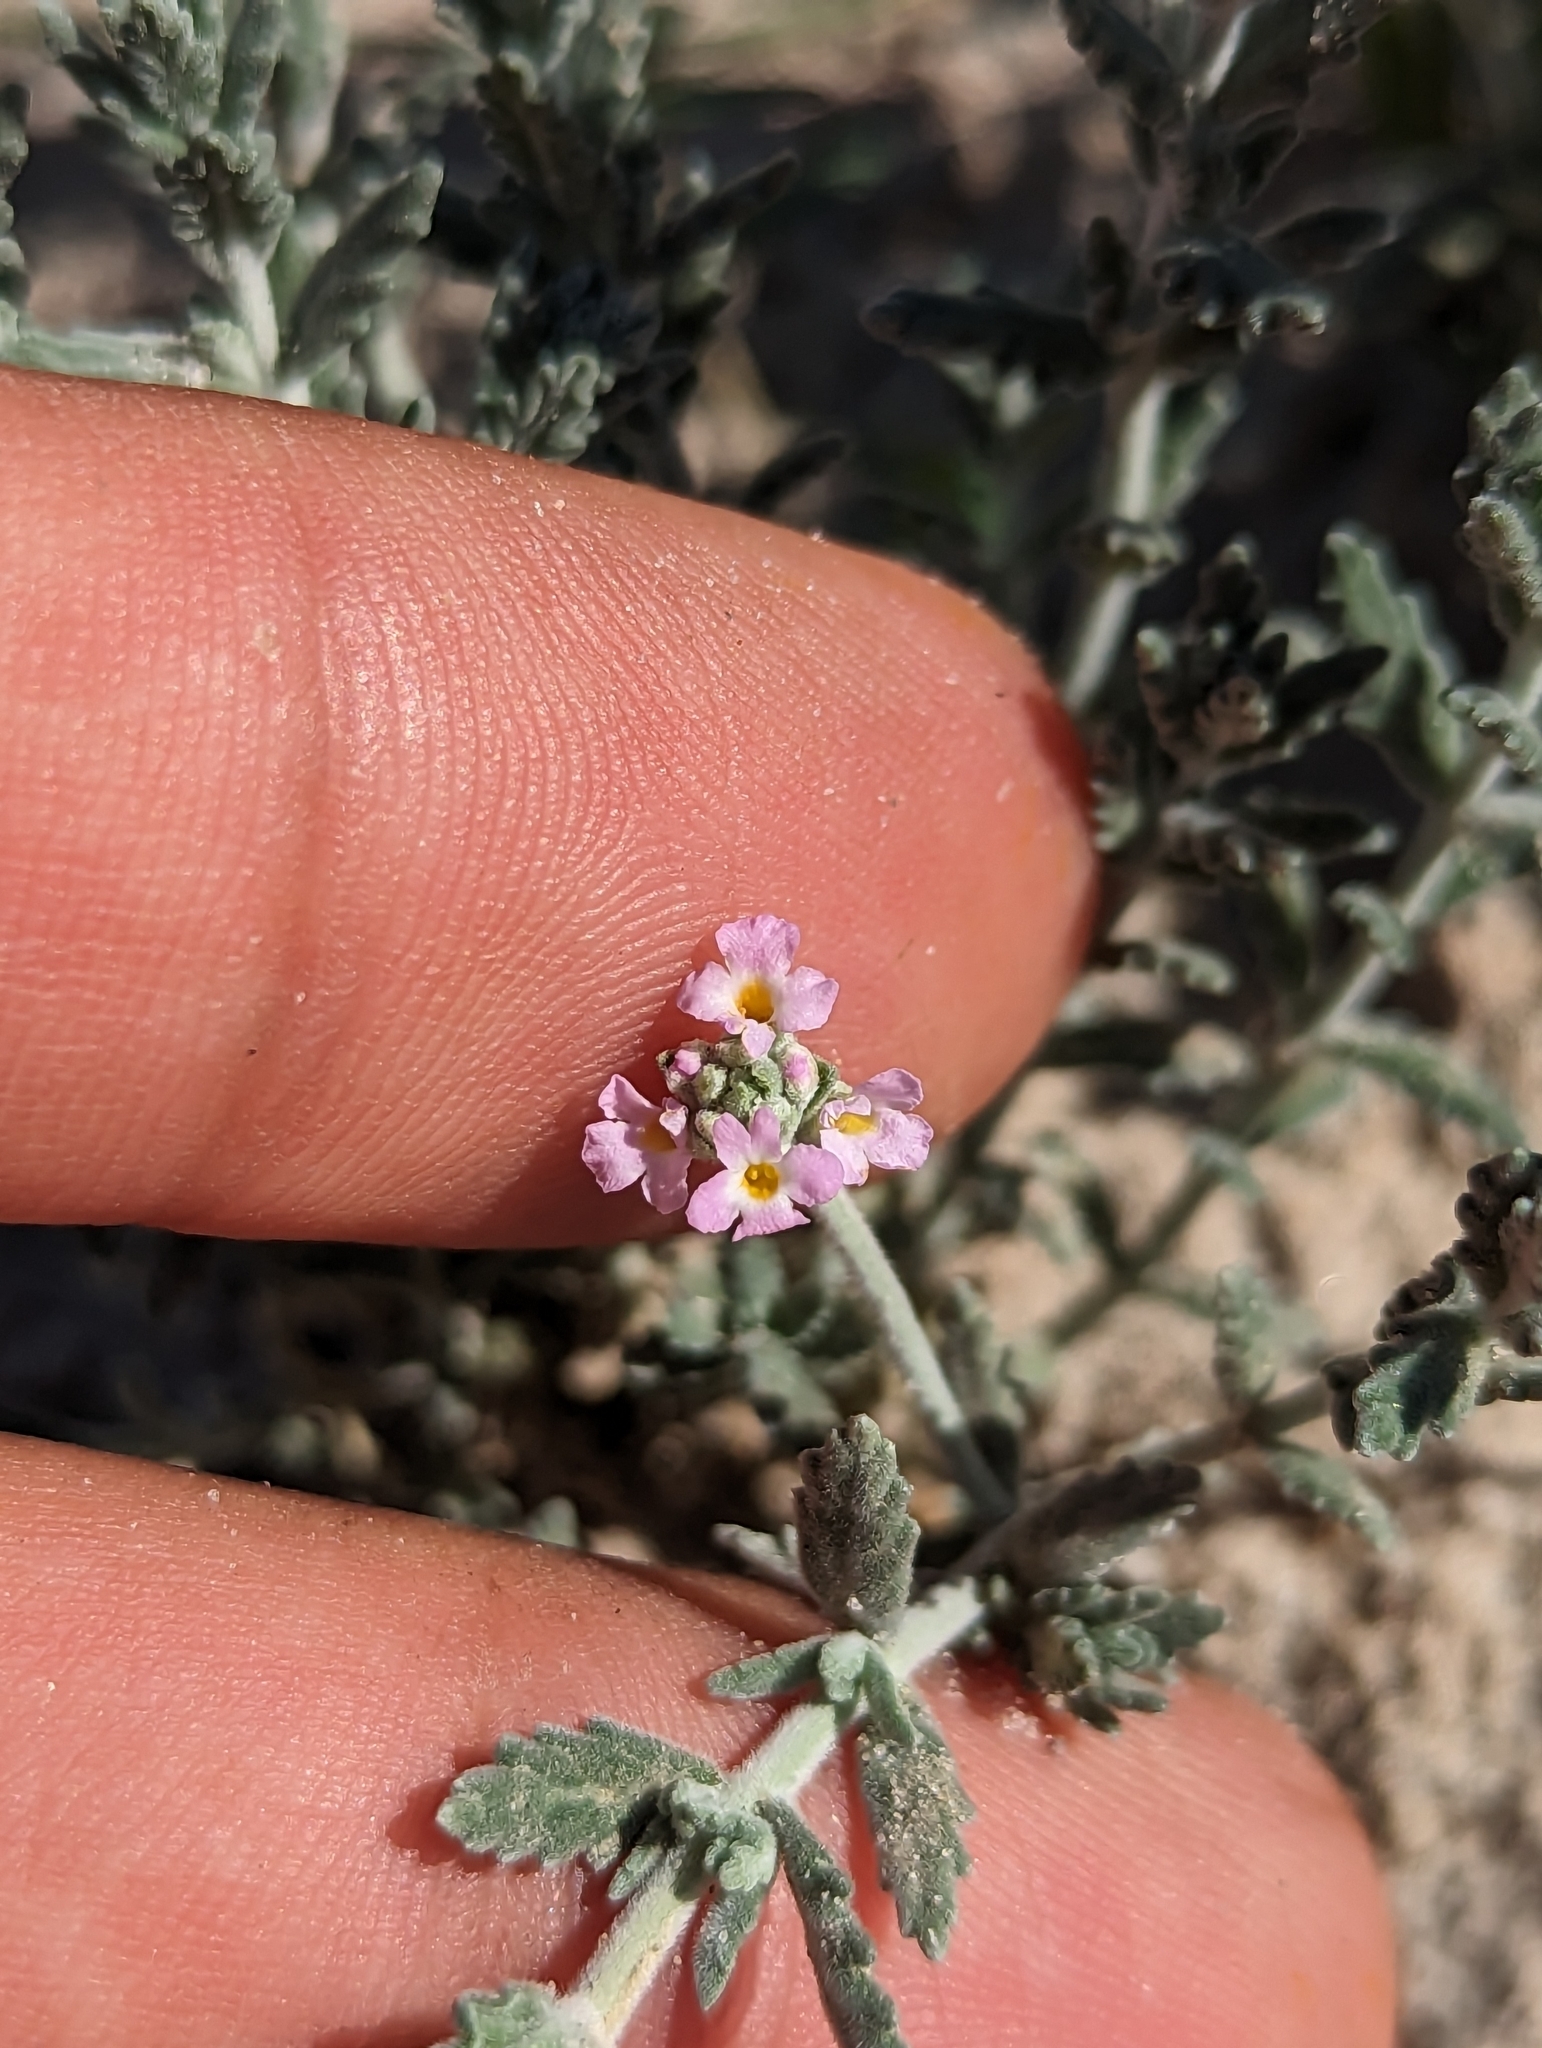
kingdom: Plantae
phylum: Tracheophyta
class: Magnoliopsida
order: Lamiales
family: Verbenaceae
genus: Lippia
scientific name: Lippia fastigiata
